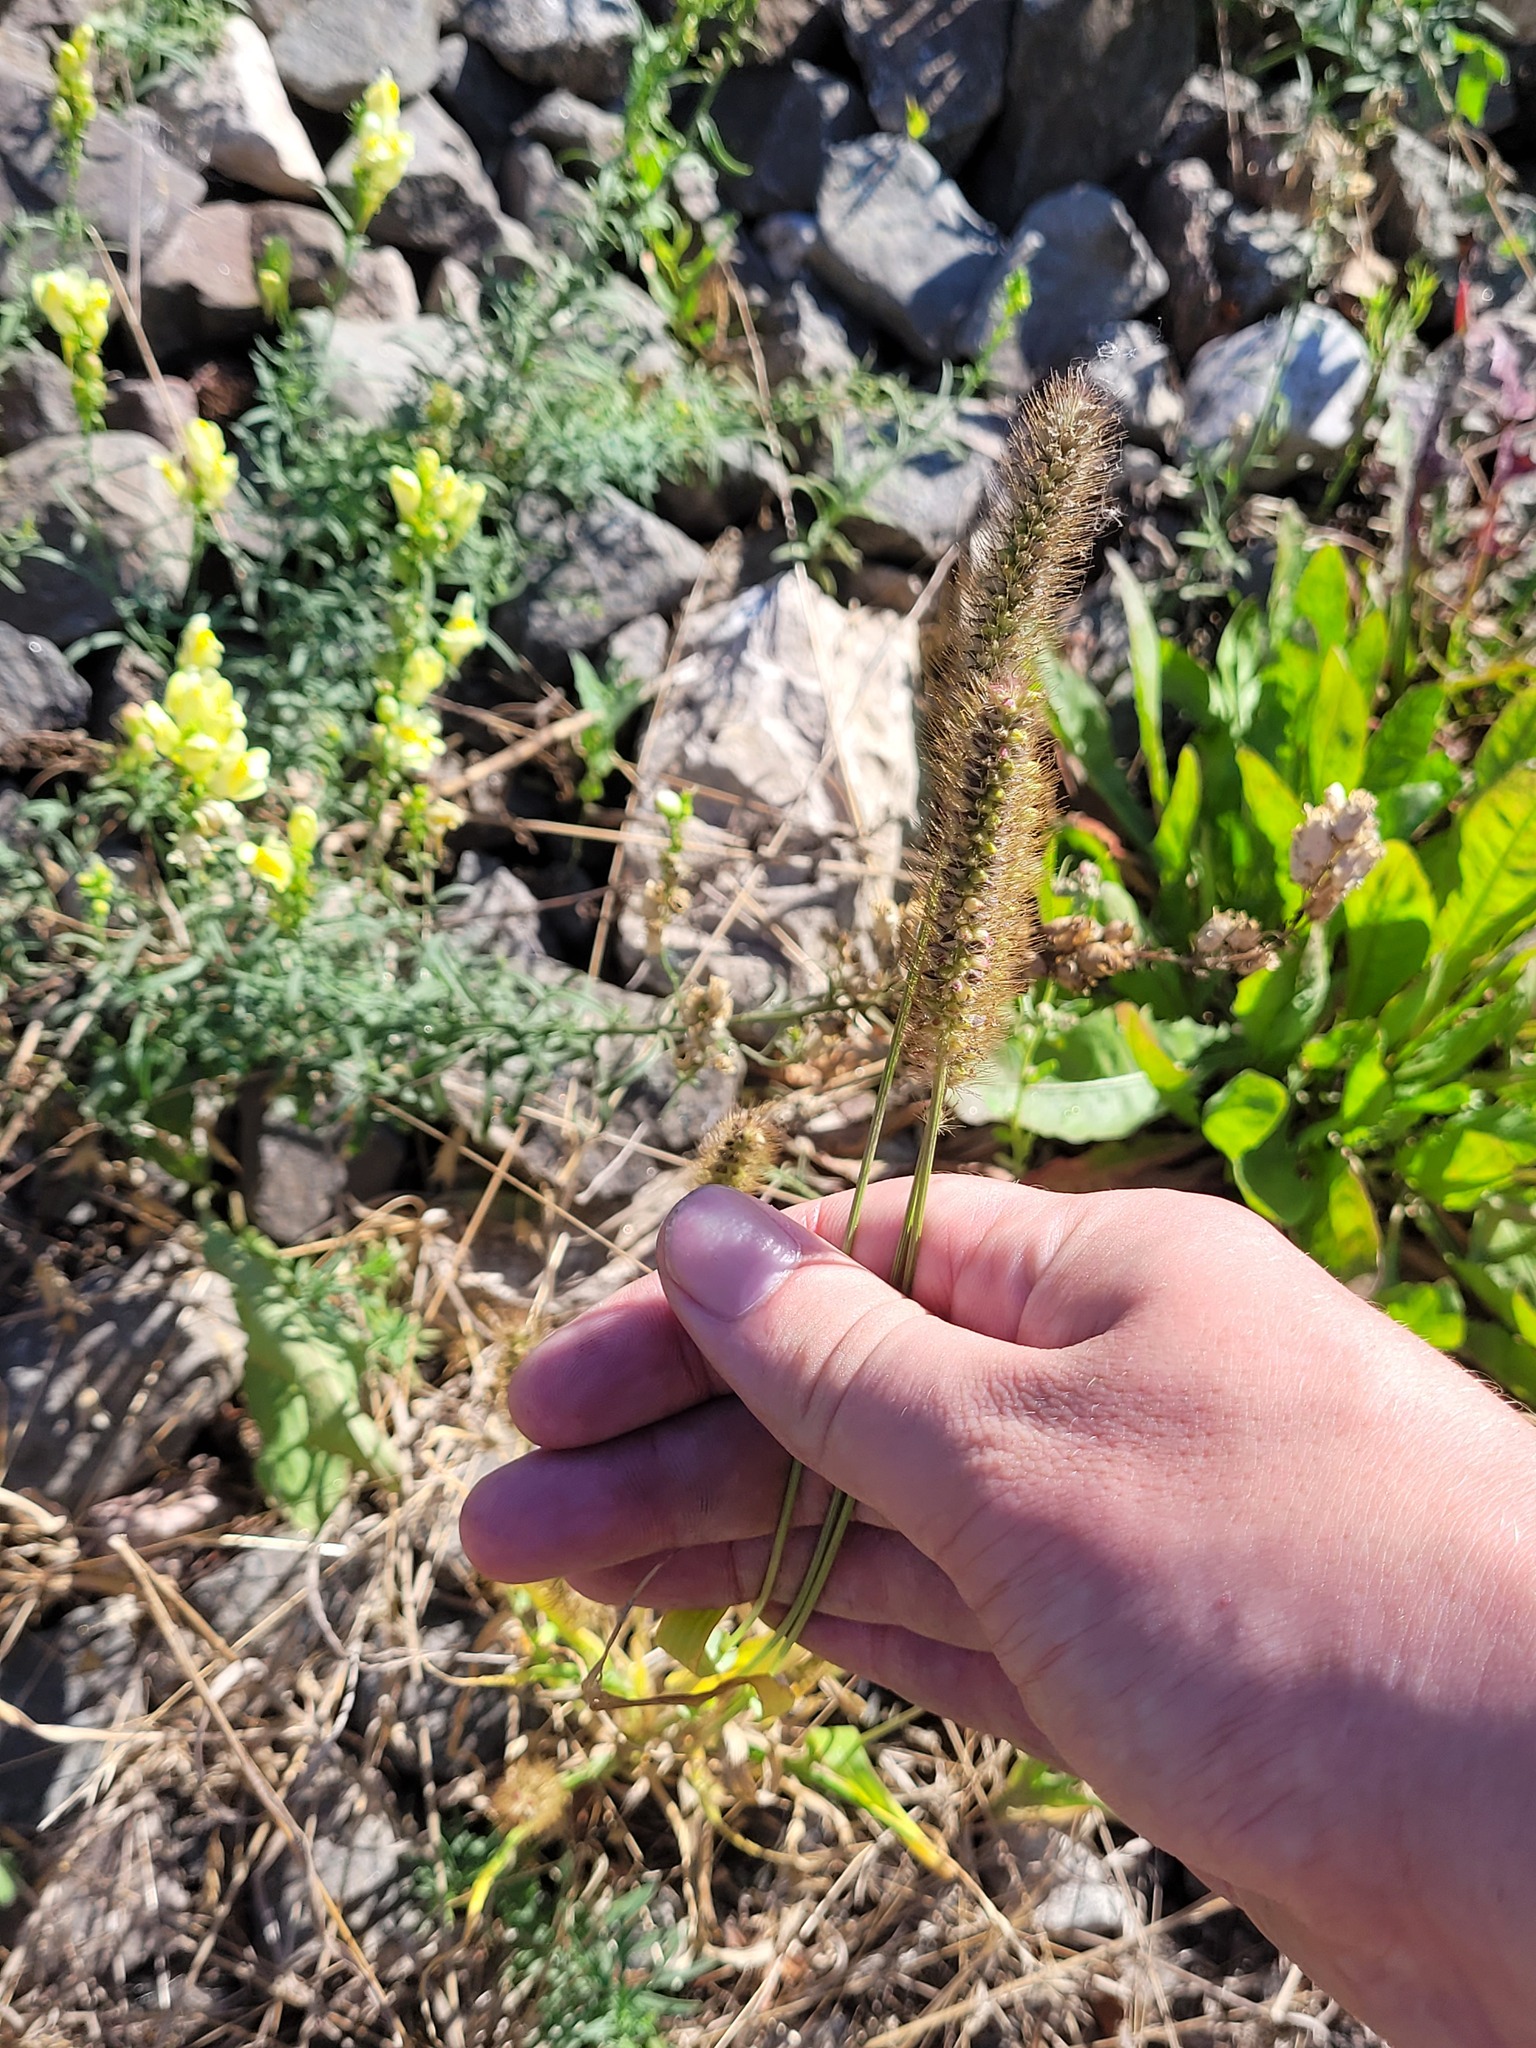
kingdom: Plantae
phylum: Tracheophyta
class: Liliopsida
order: Poales
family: Poaceae
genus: Setaria
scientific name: Setaria pumila
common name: Yellow bristle-grass
